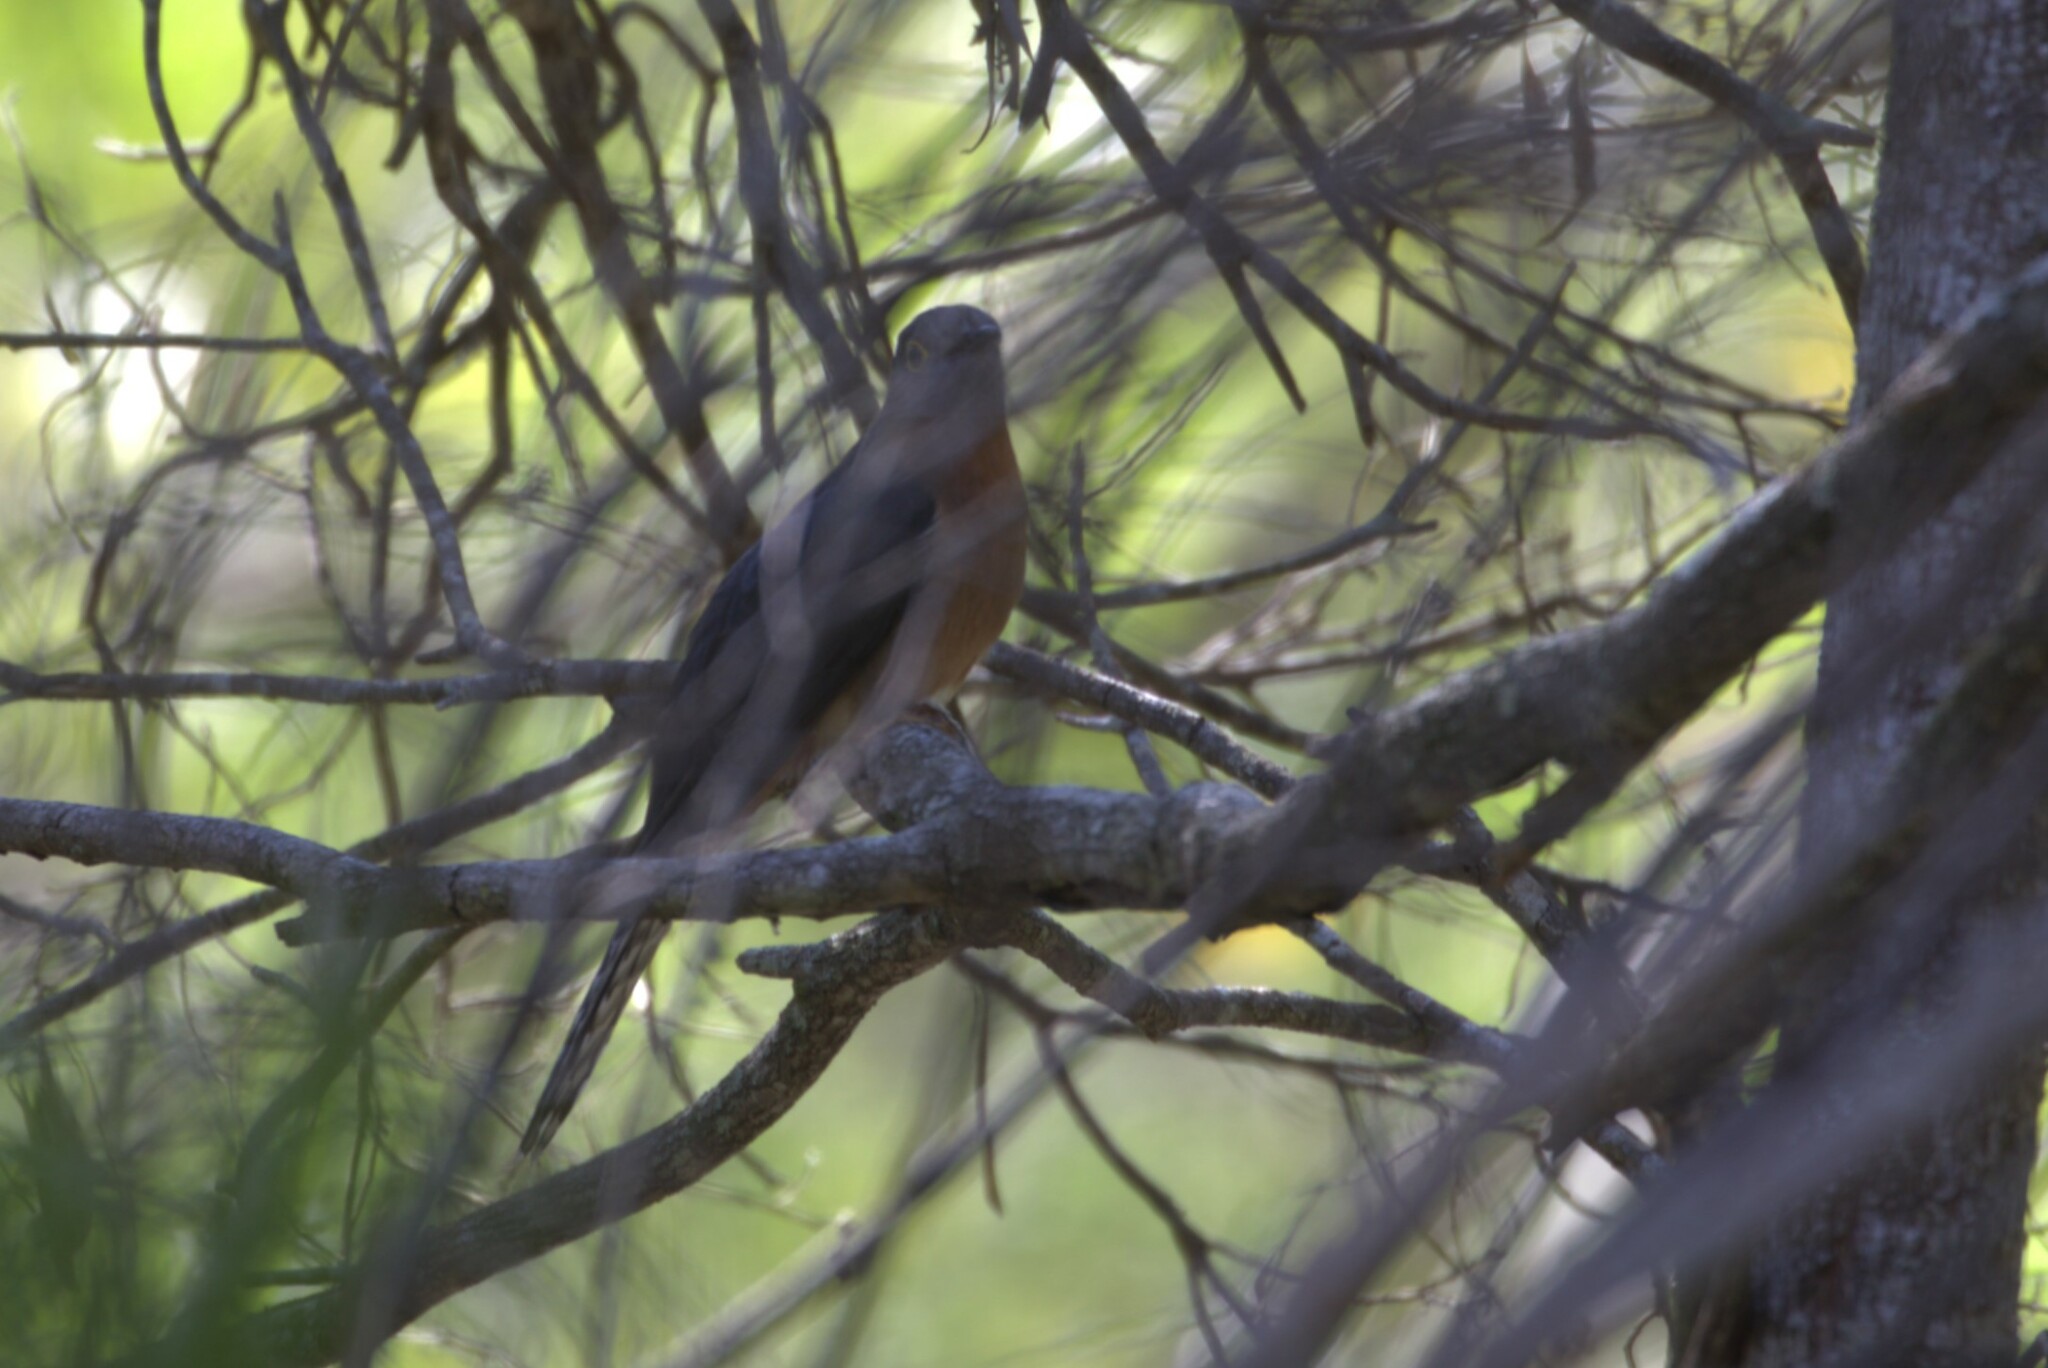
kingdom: Animalia
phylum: Chordata
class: Aves
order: Cuculiformes
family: Cuculidae
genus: Cacomantis
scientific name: Cacomantis flabelliformis
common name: Fan-tailed cuckoo
